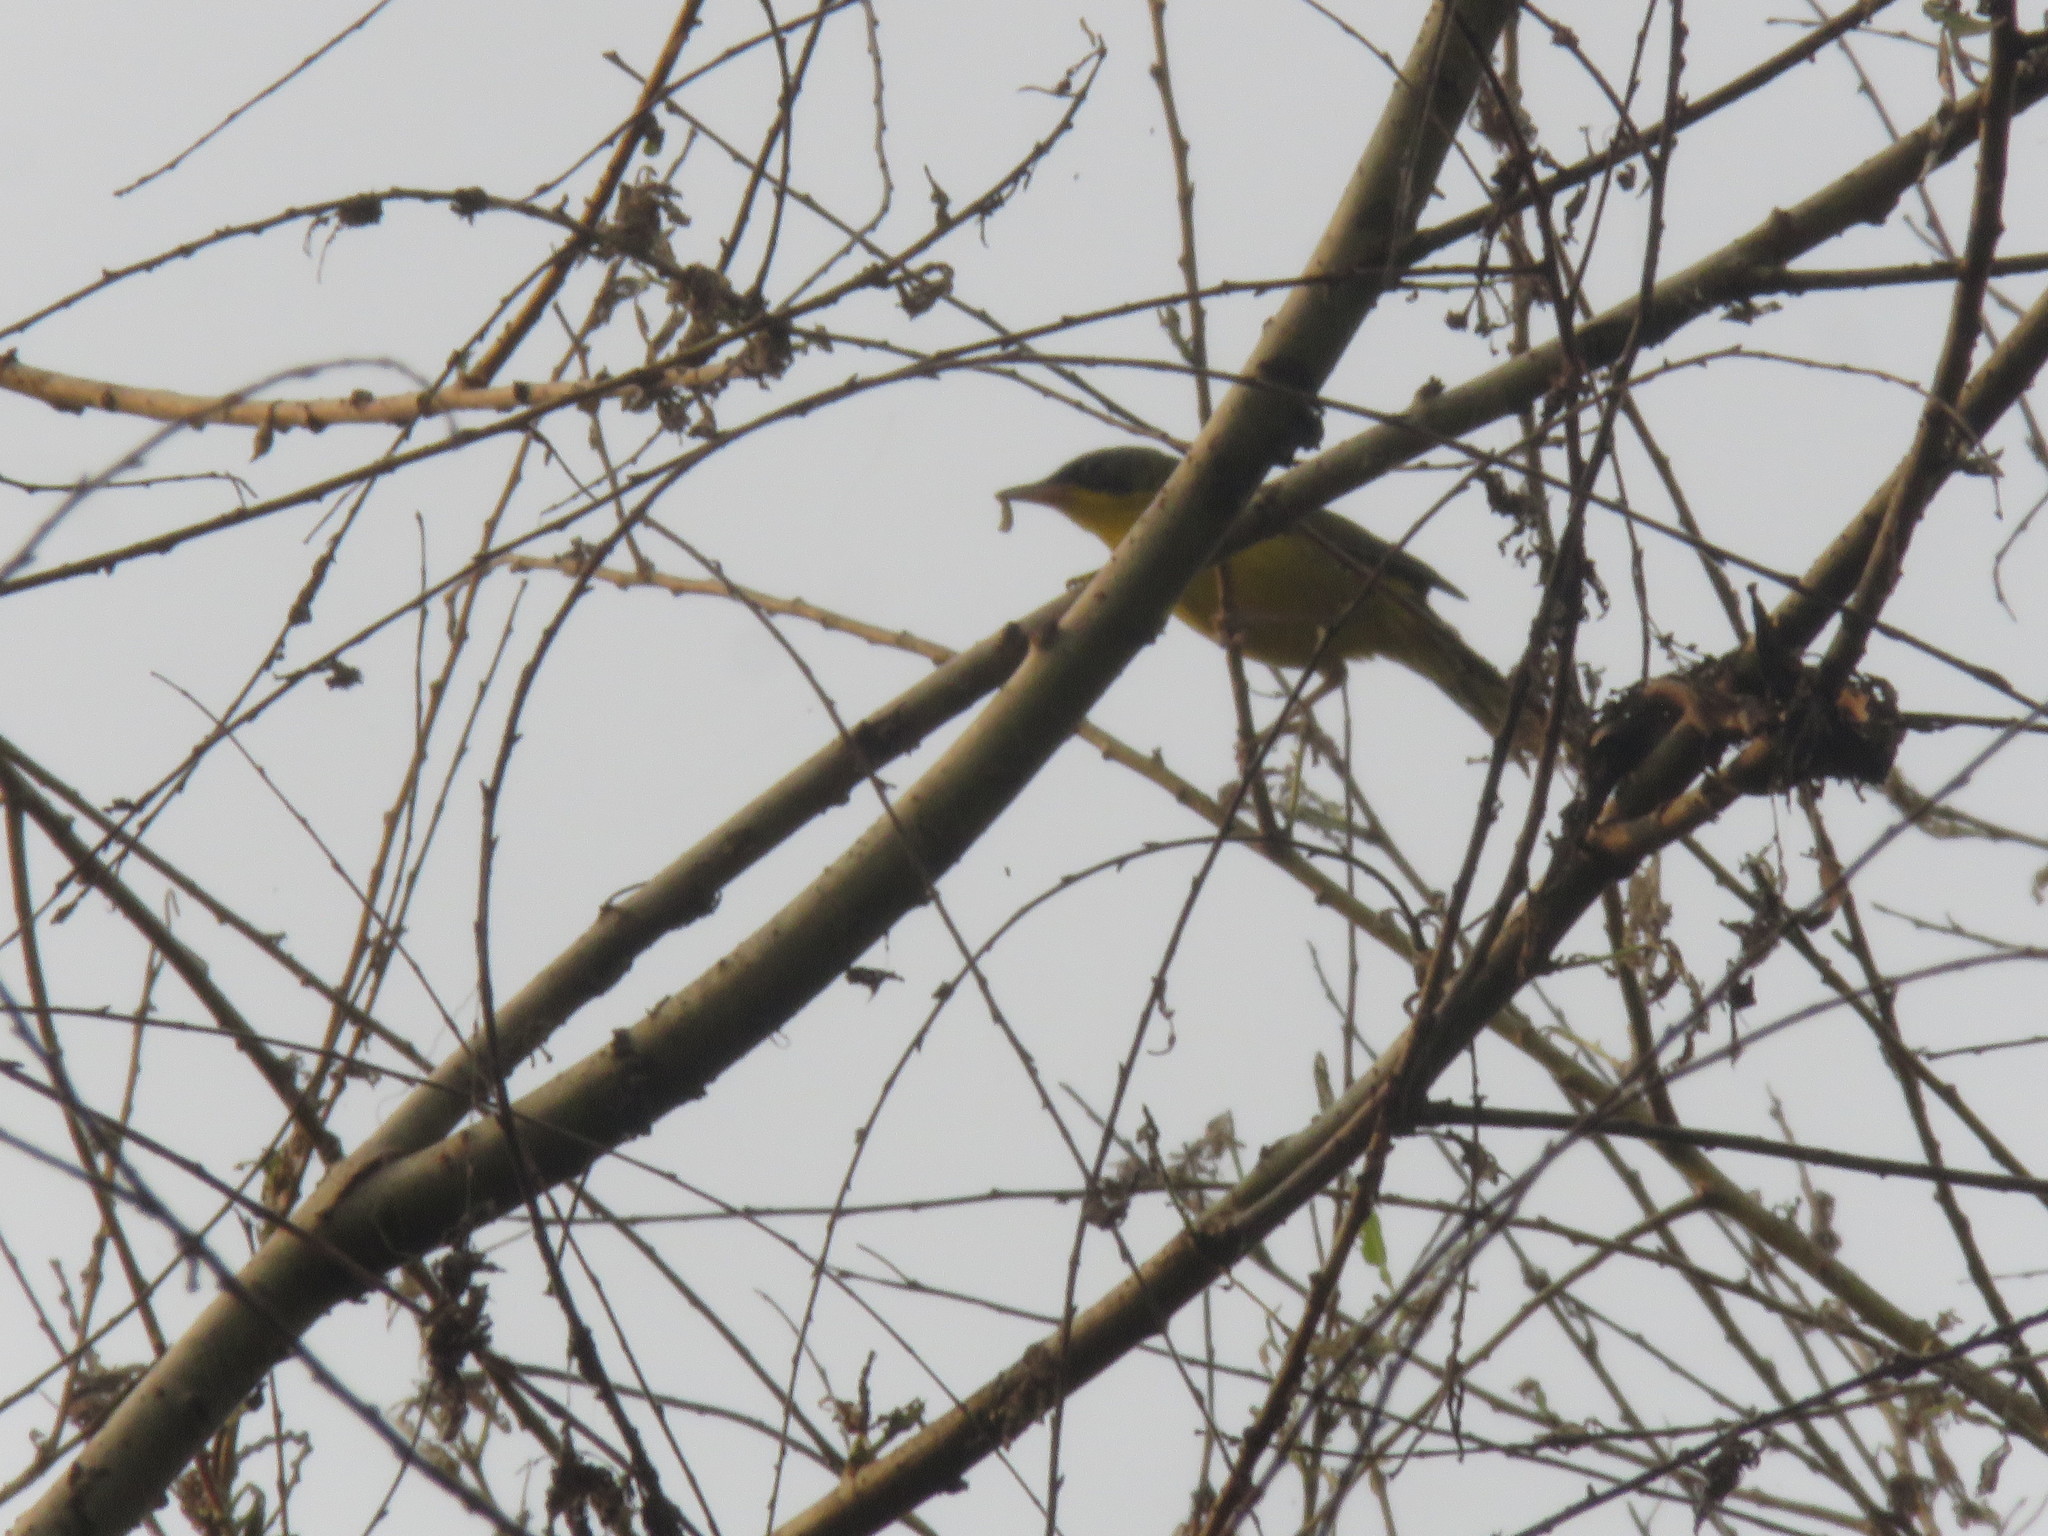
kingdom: Animalia
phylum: Chordata
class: Aves
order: Passeriformes
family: Parulidae
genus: Geothlypis
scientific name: Geothlypis velata
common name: Southern yellowthroat
